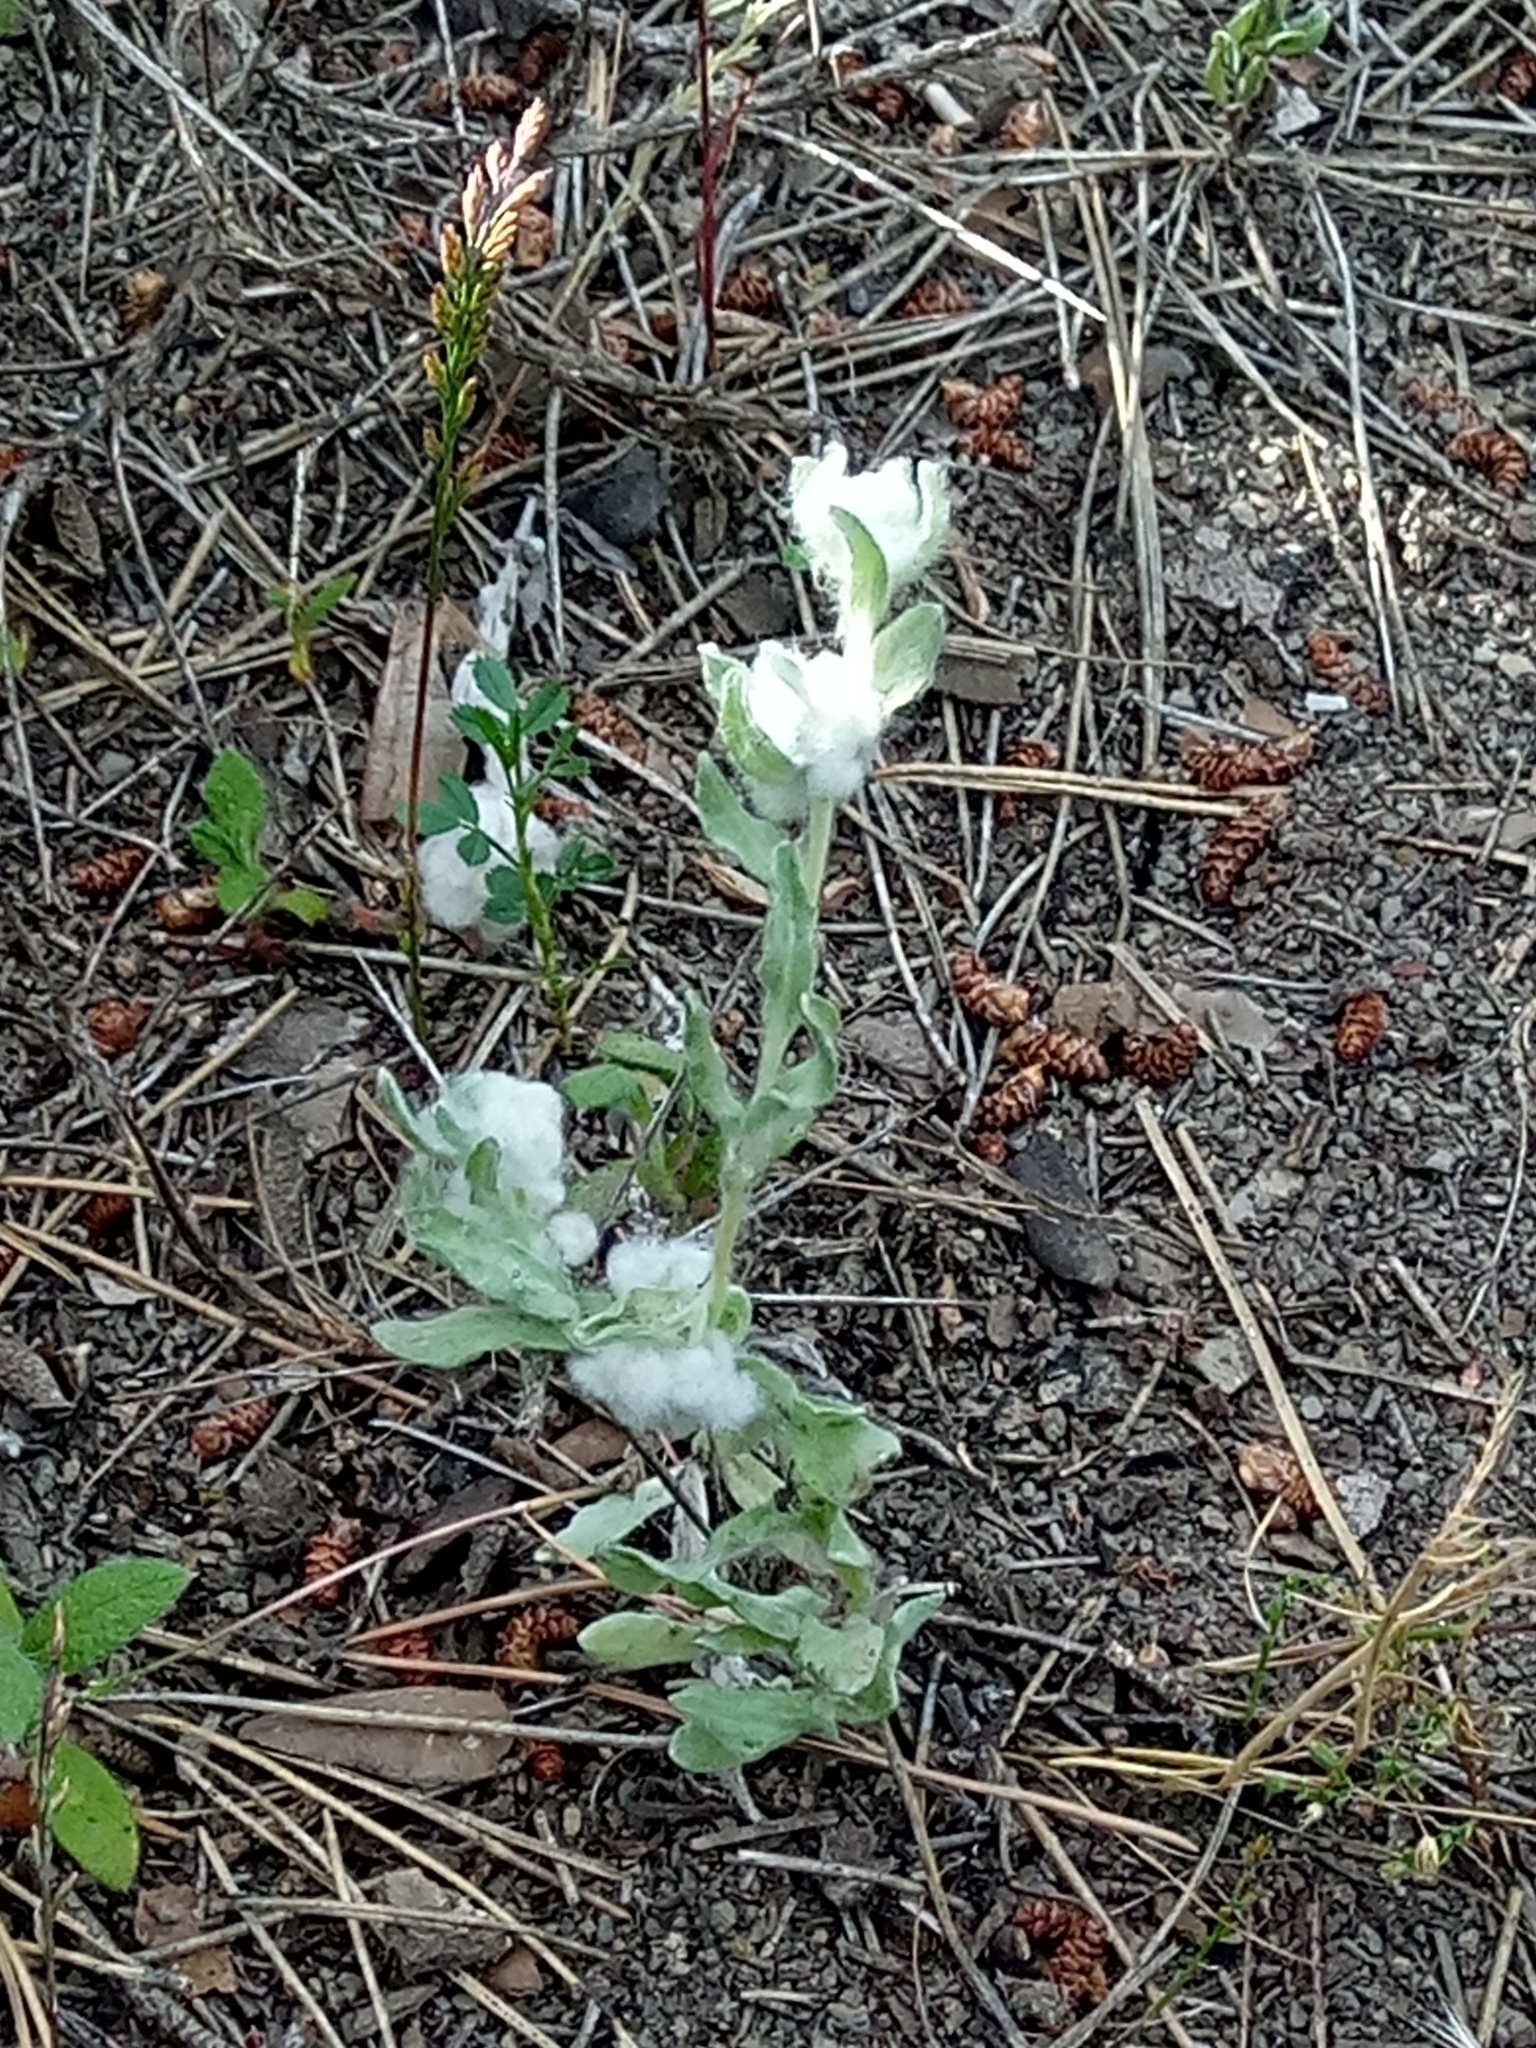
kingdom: Plantae
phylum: Tracheophyta
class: Magnoliopsida
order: Asterales
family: Asteraceae
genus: Bombycilaena
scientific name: Bombycilaena discolor
